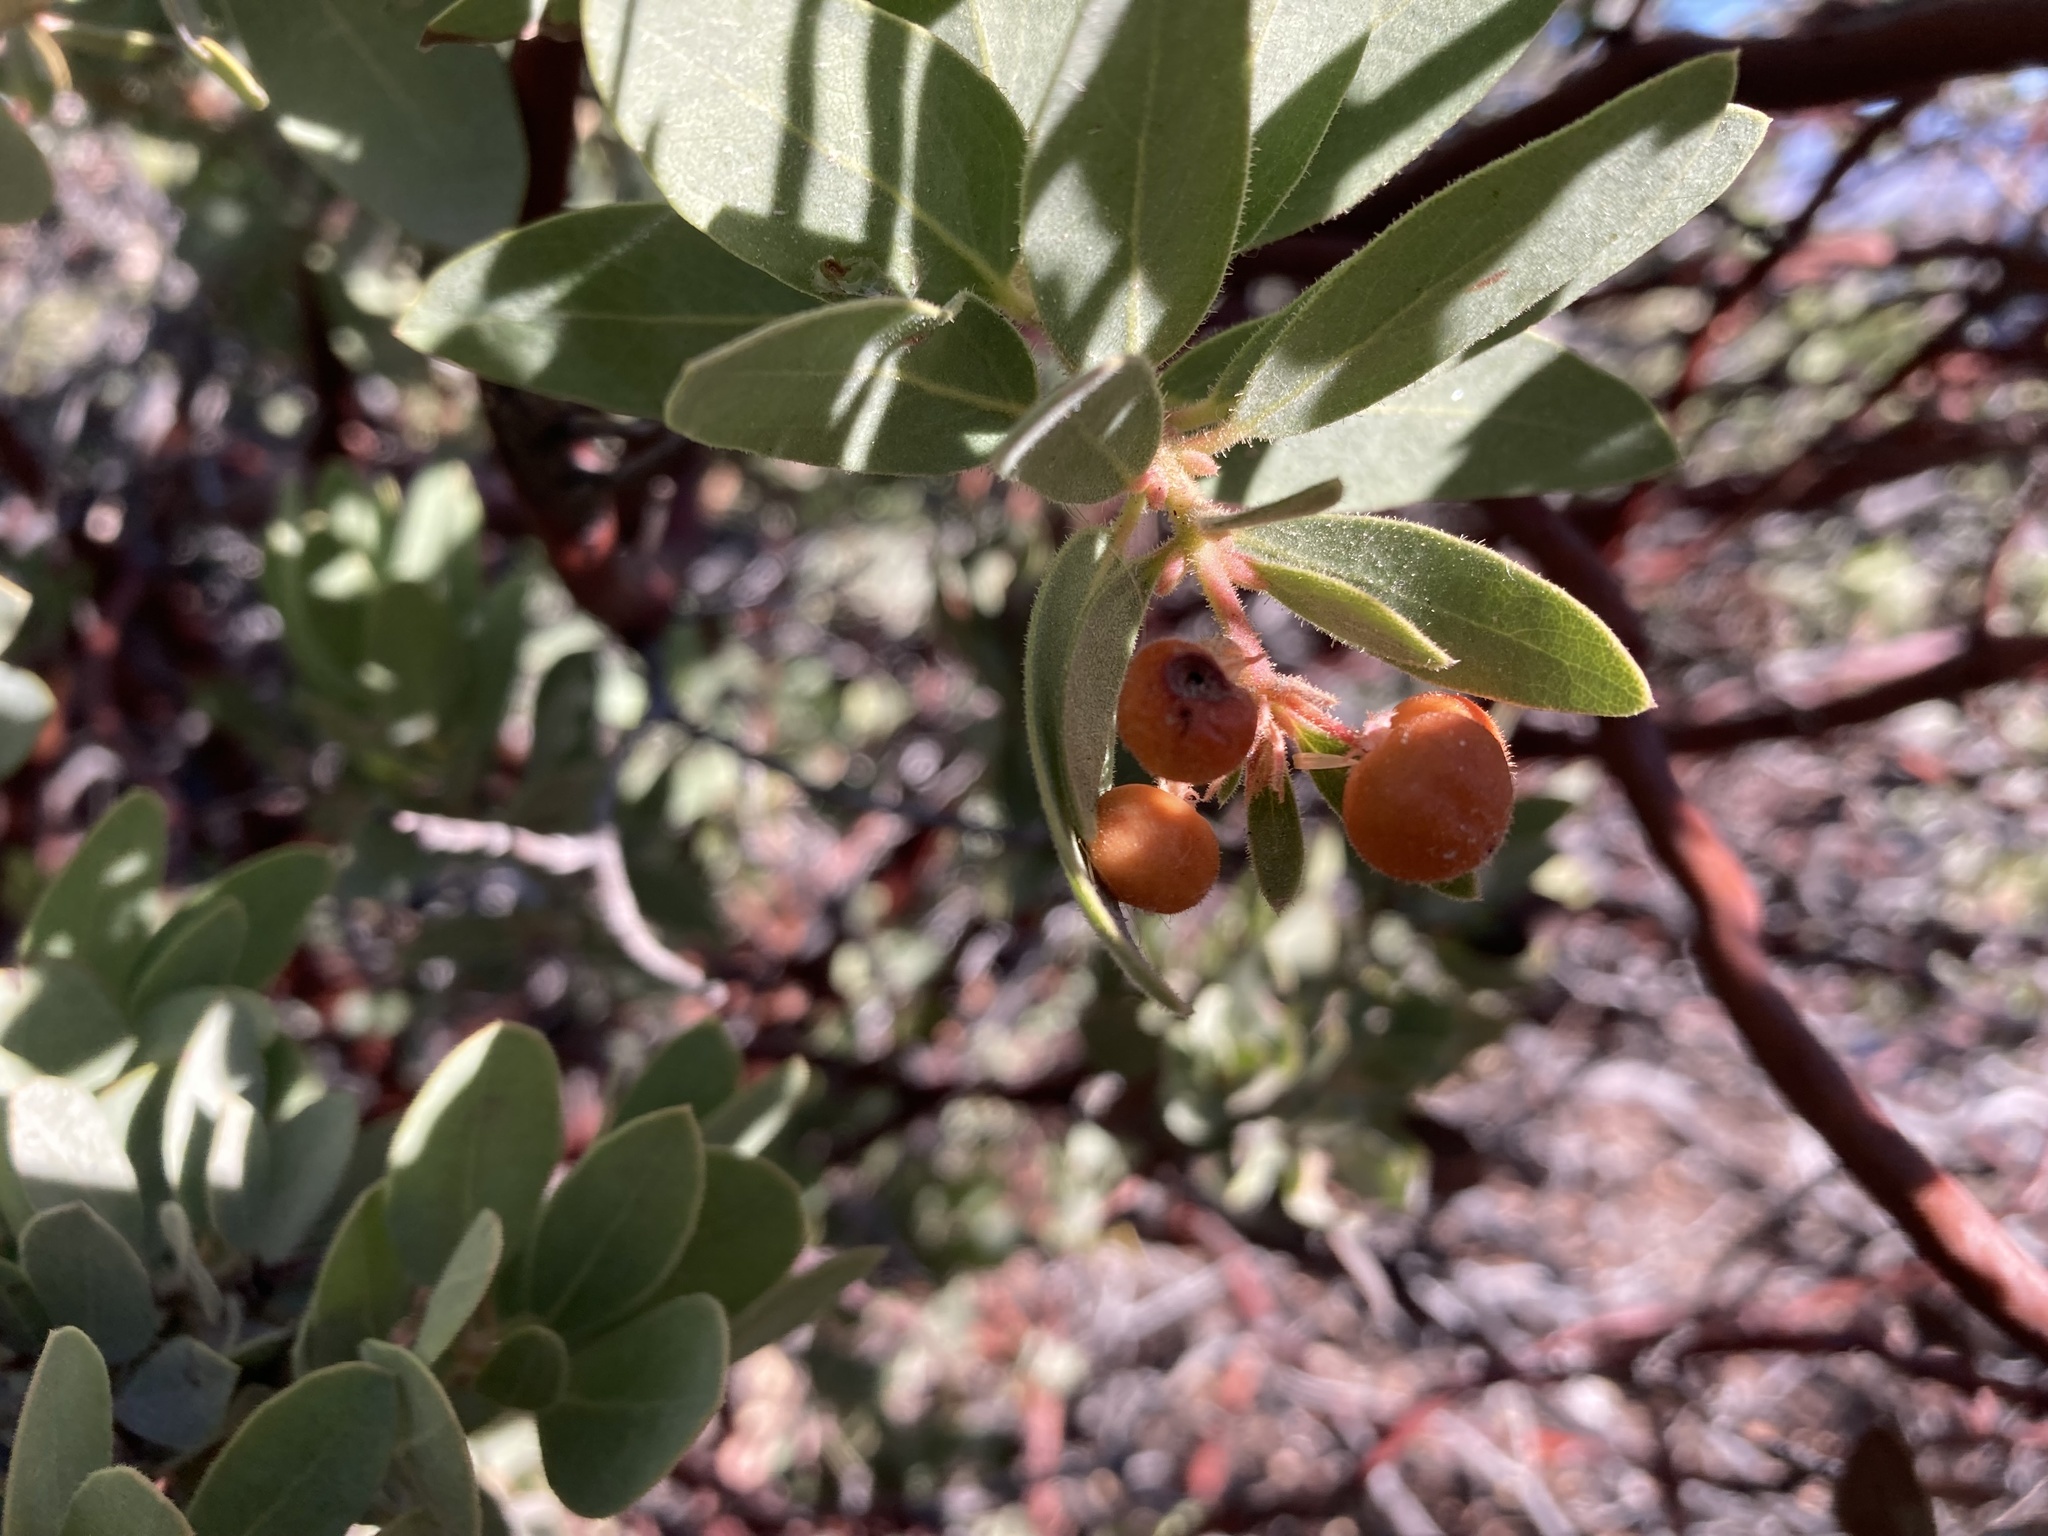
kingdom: Plantae
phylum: Tracheophyta
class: Magnoliopsida
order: Ericales
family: Ericaceae
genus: Arctostaphylos
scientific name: Arctostaphylos pringlei
